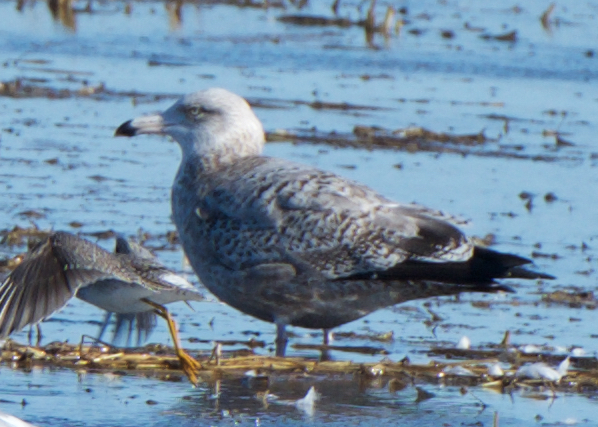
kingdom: Animalia
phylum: Chordata
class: Aves
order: Charadriiformes
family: Laridae
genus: Larus
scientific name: Larus argentatus
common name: Herring gull
